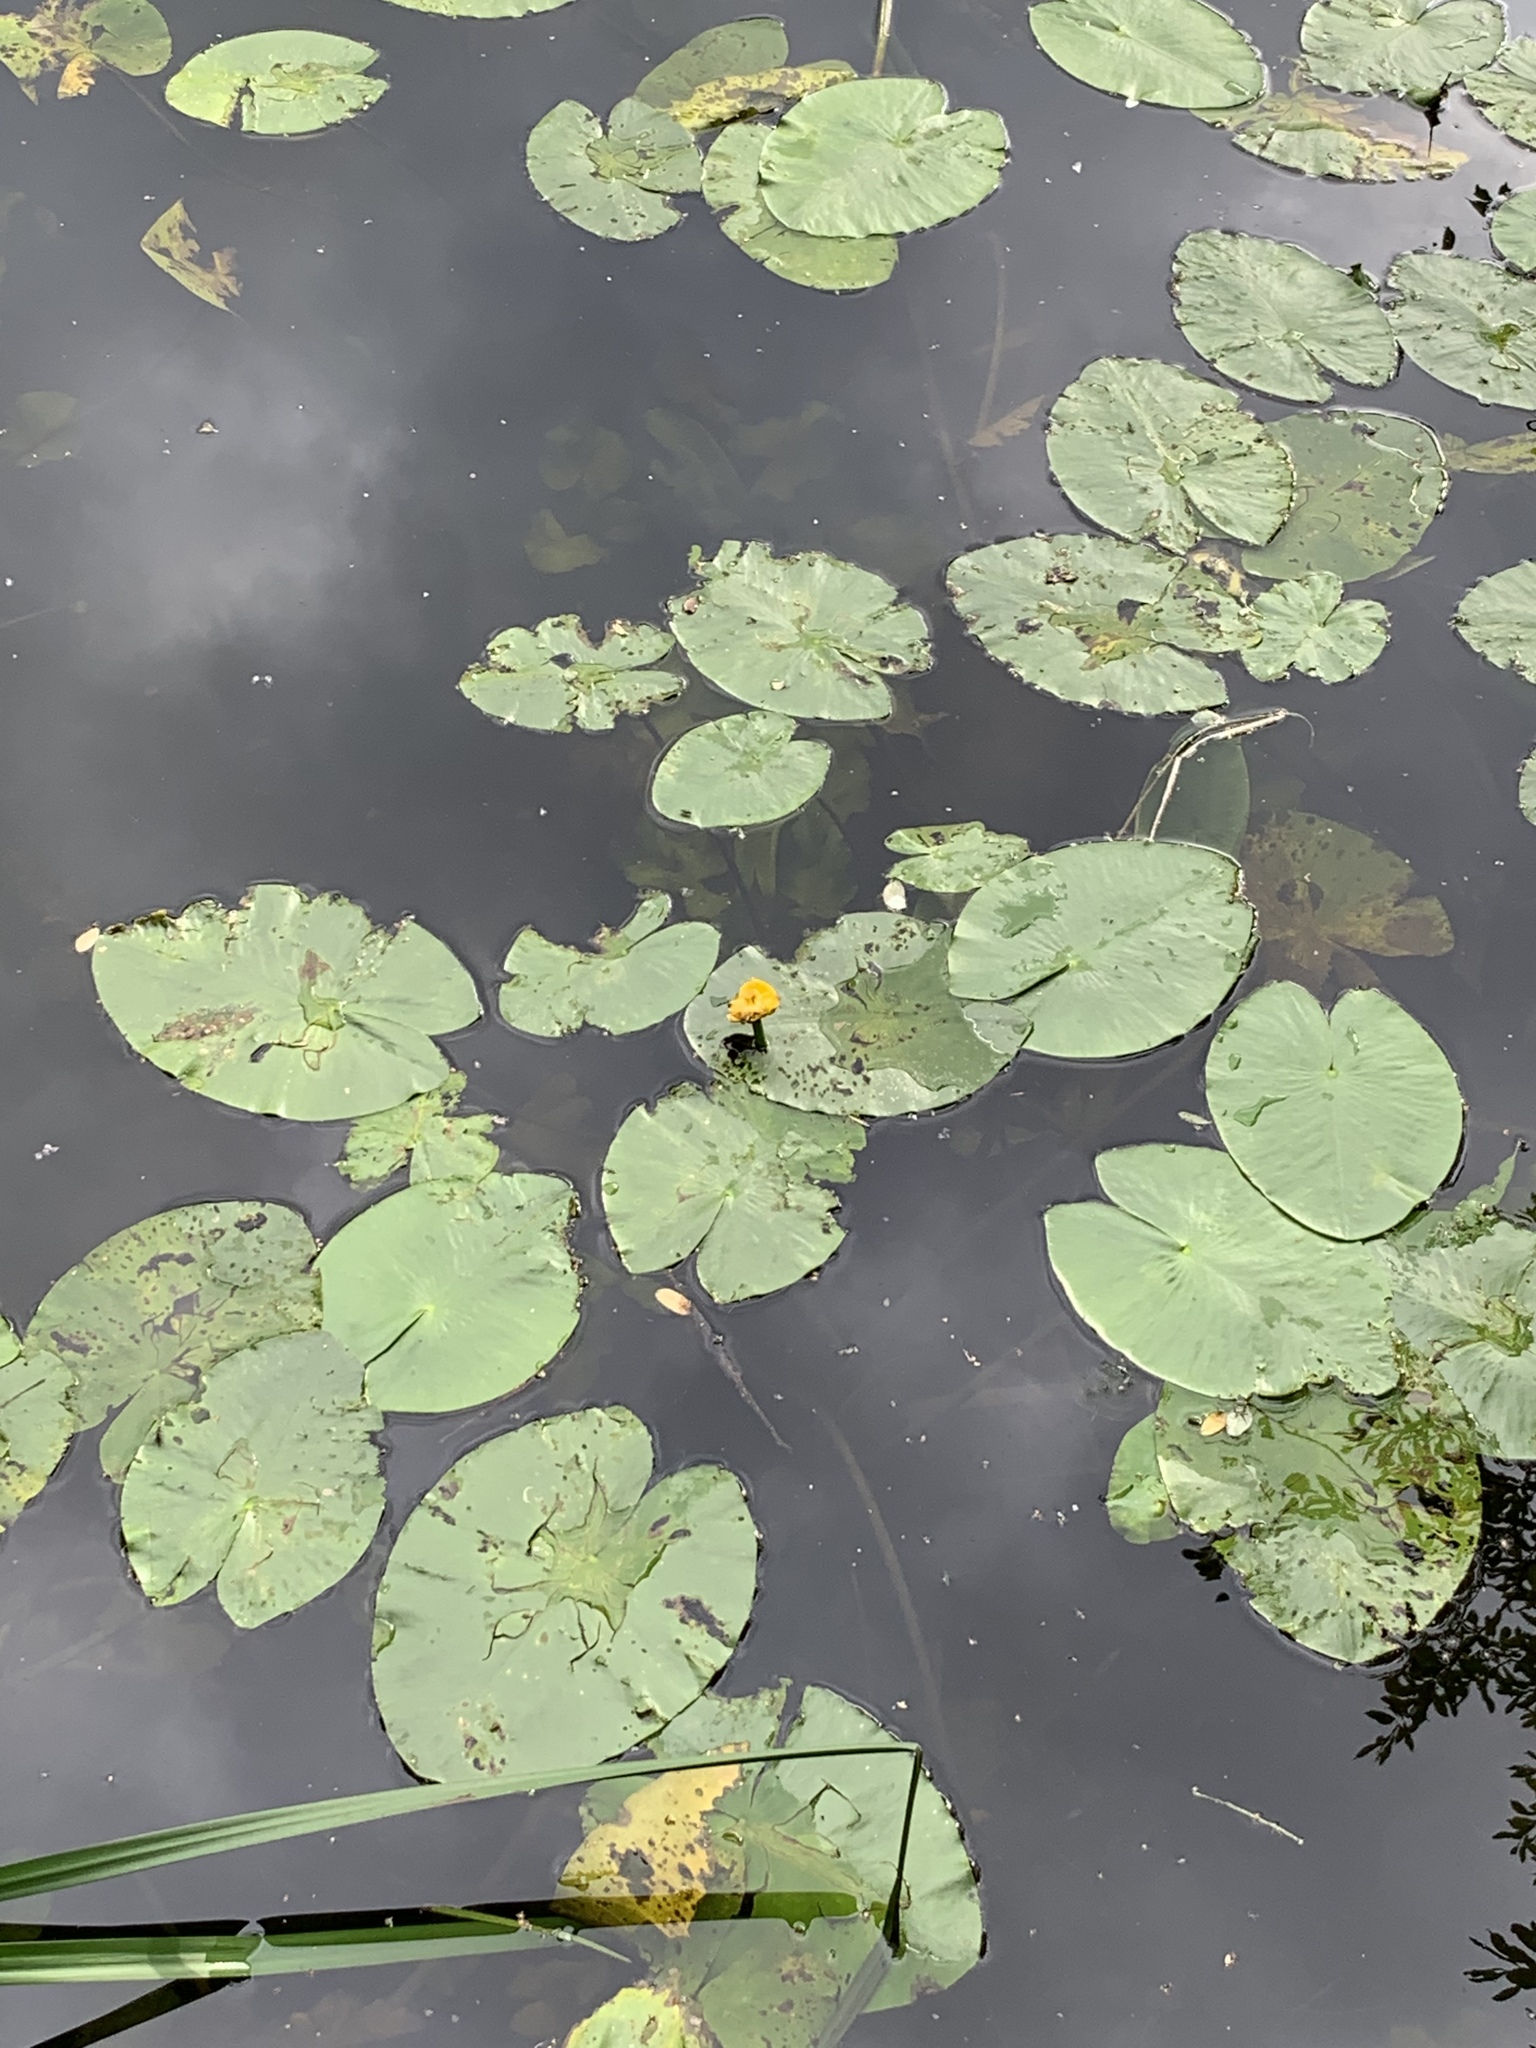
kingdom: Plantae
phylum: Tracheophyta
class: Magnoliopsida
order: Nymphaeales
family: Nymphaeaceae
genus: Nuphar
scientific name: Nuphar lutea
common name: Yellow water-lily
